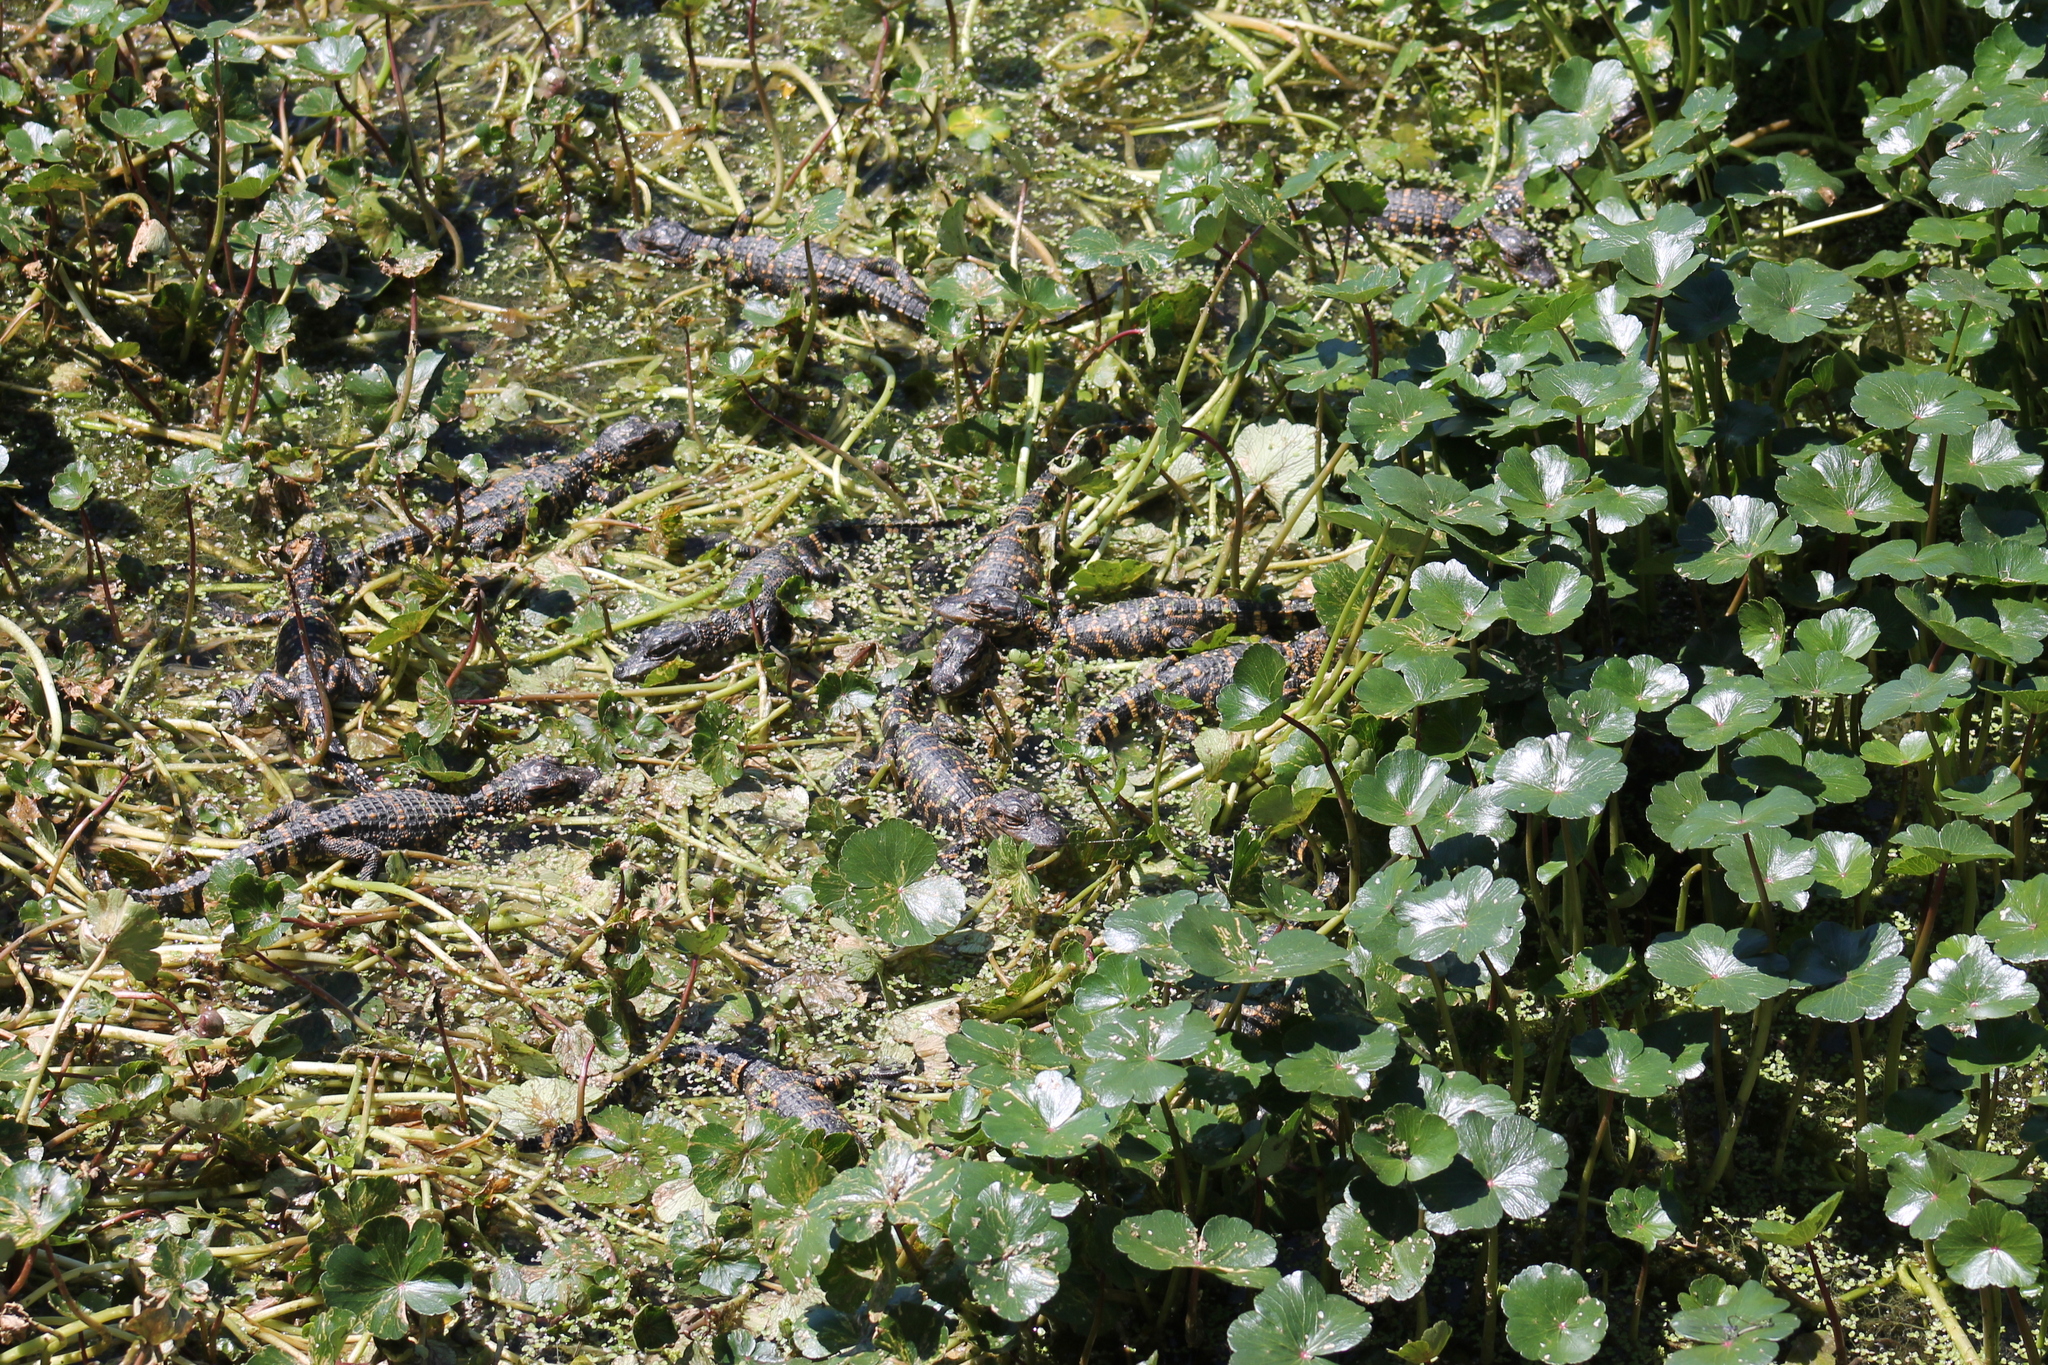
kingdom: Animalia
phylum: Chordata
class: Crocodylia
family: Alligatoridae
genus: Alligator
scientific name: Alligator mississippiensis
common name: American alligator
